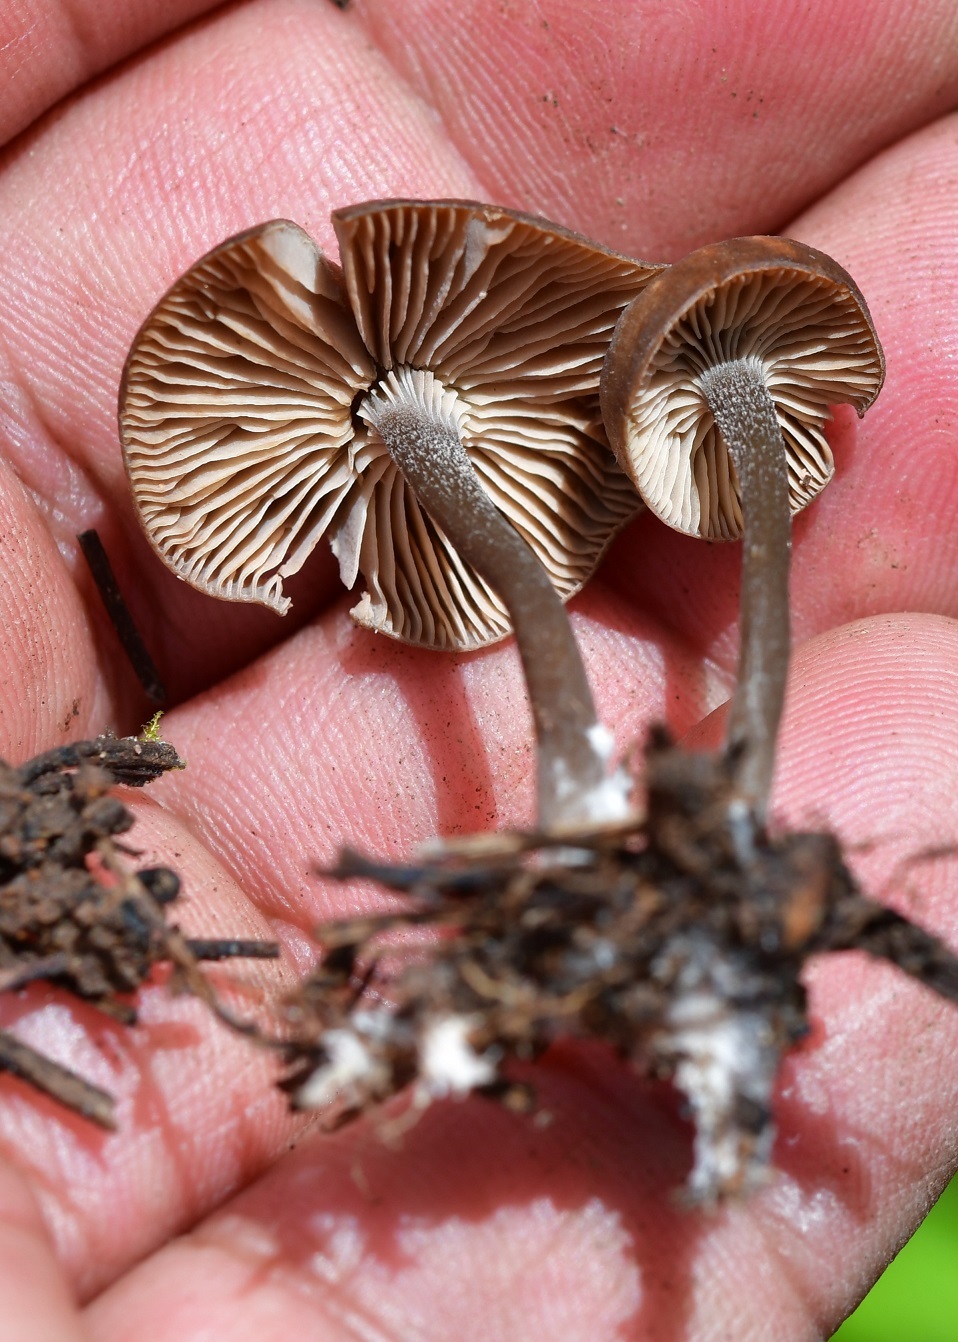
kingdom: Fungi
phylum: Basidiomycota
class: Agaricomycetes
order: Agaricales
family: Lyophyllaceae
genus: Myochromella
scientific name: Myochromella boudieri
